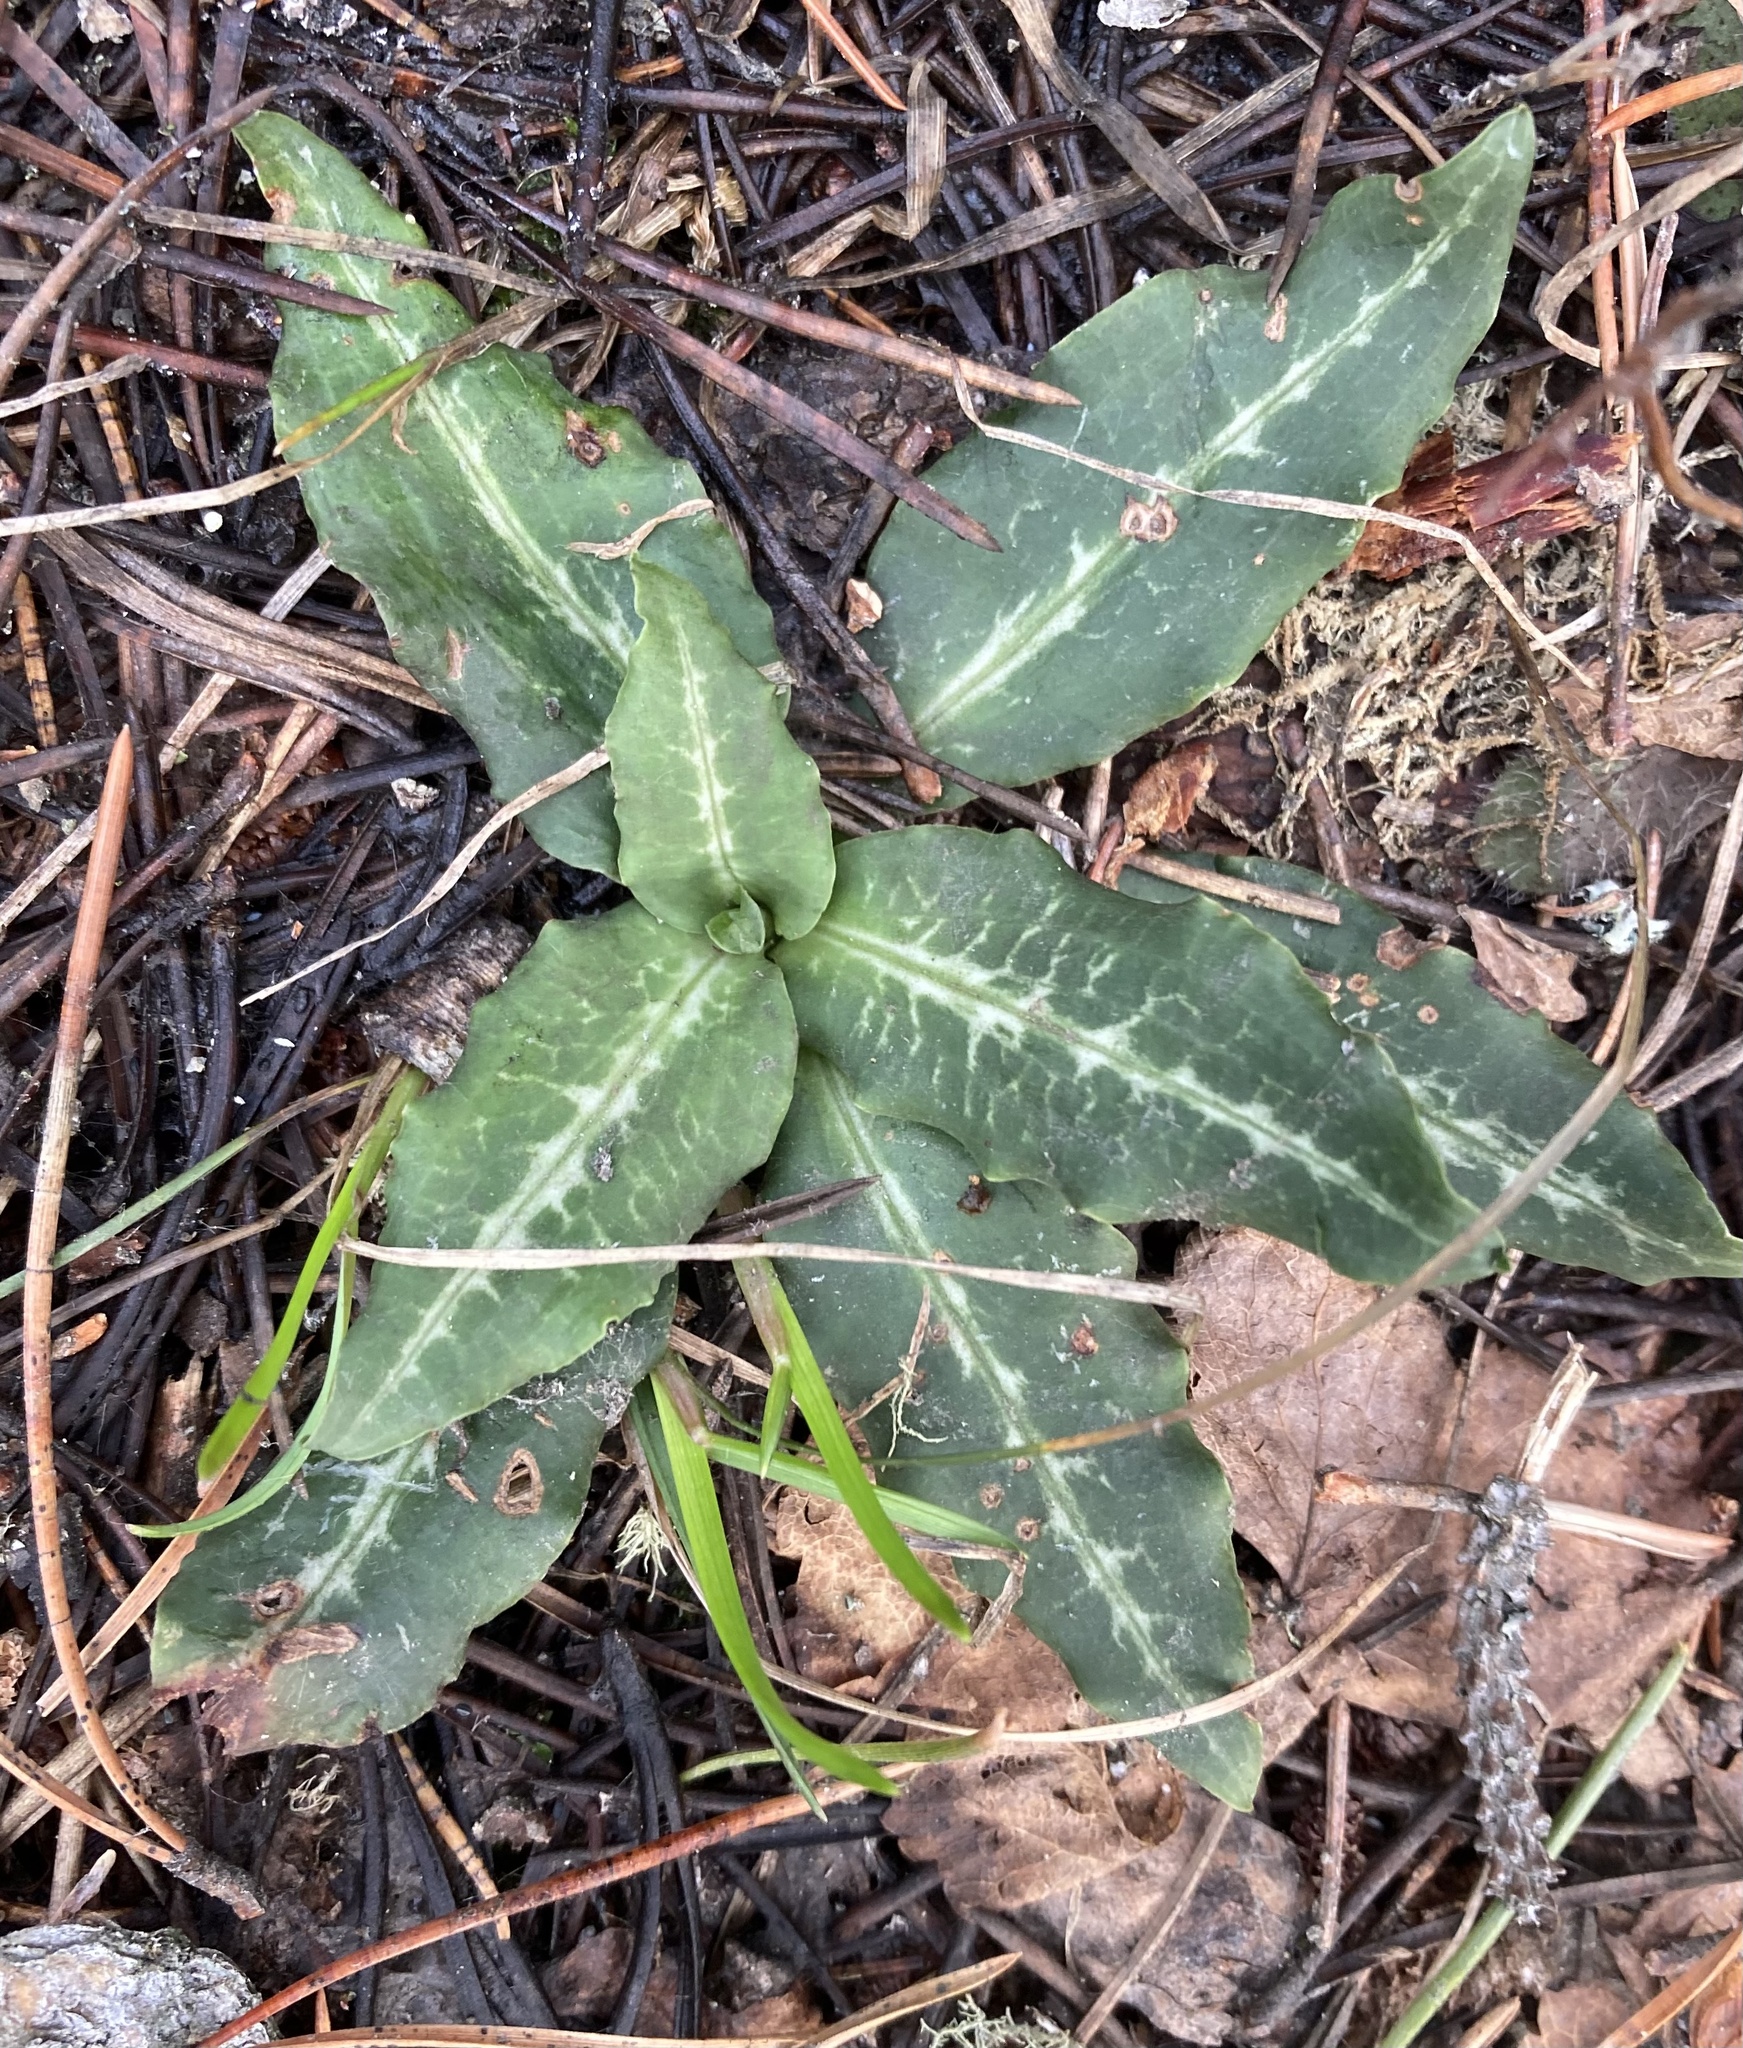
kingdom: Plantae
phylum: Tracheophyta
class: Liliopsida
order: Asparagales
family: Orchidaceae
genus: Goodyera
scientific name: Goodyera oblongifolia
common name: Giant rattlesnake-plantain
